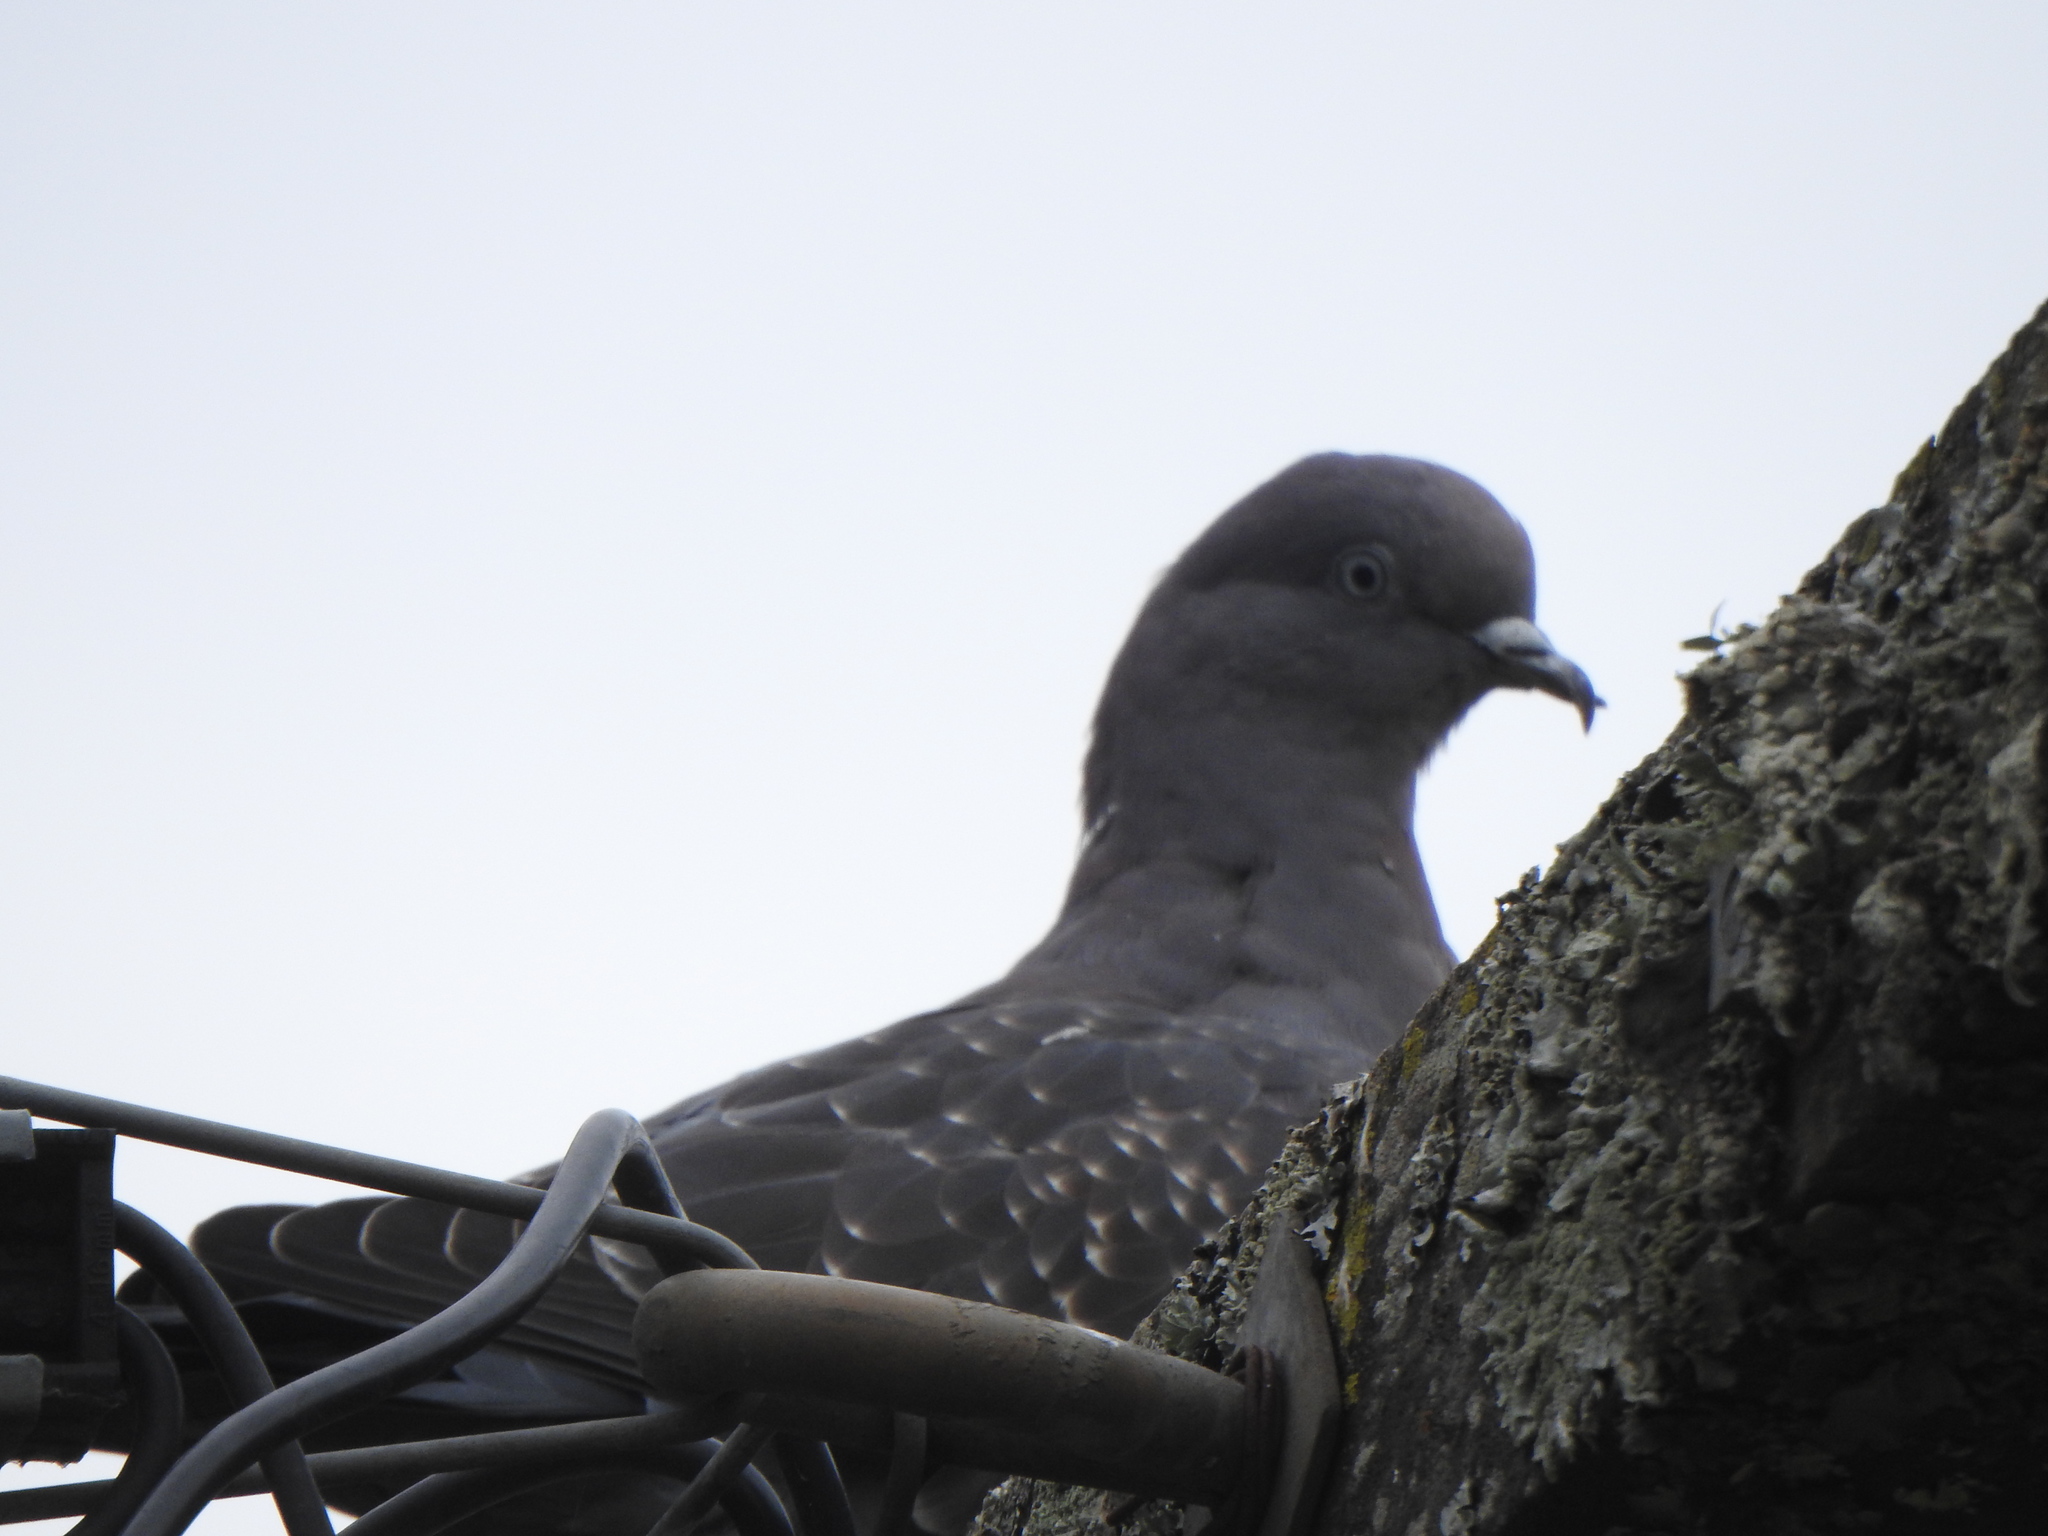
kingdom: Animalia
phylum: Chordata
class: Aves
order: Columbiformes
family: Columbidae
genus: Patagioenas
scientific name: Patagioenas maculosa
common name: Spot-winged pigeon
